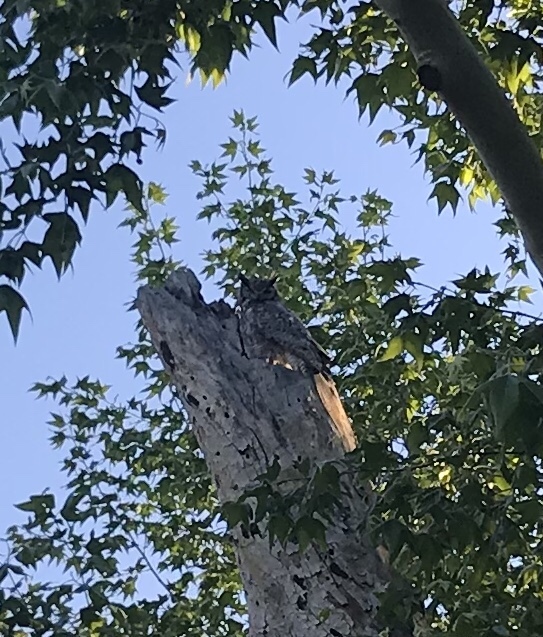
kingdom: Animalia
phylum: Chordata
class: Aves
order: Strigiformes
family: Strigidae
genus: Bubo
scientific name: Bubo virginianus
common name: Great horned owl
